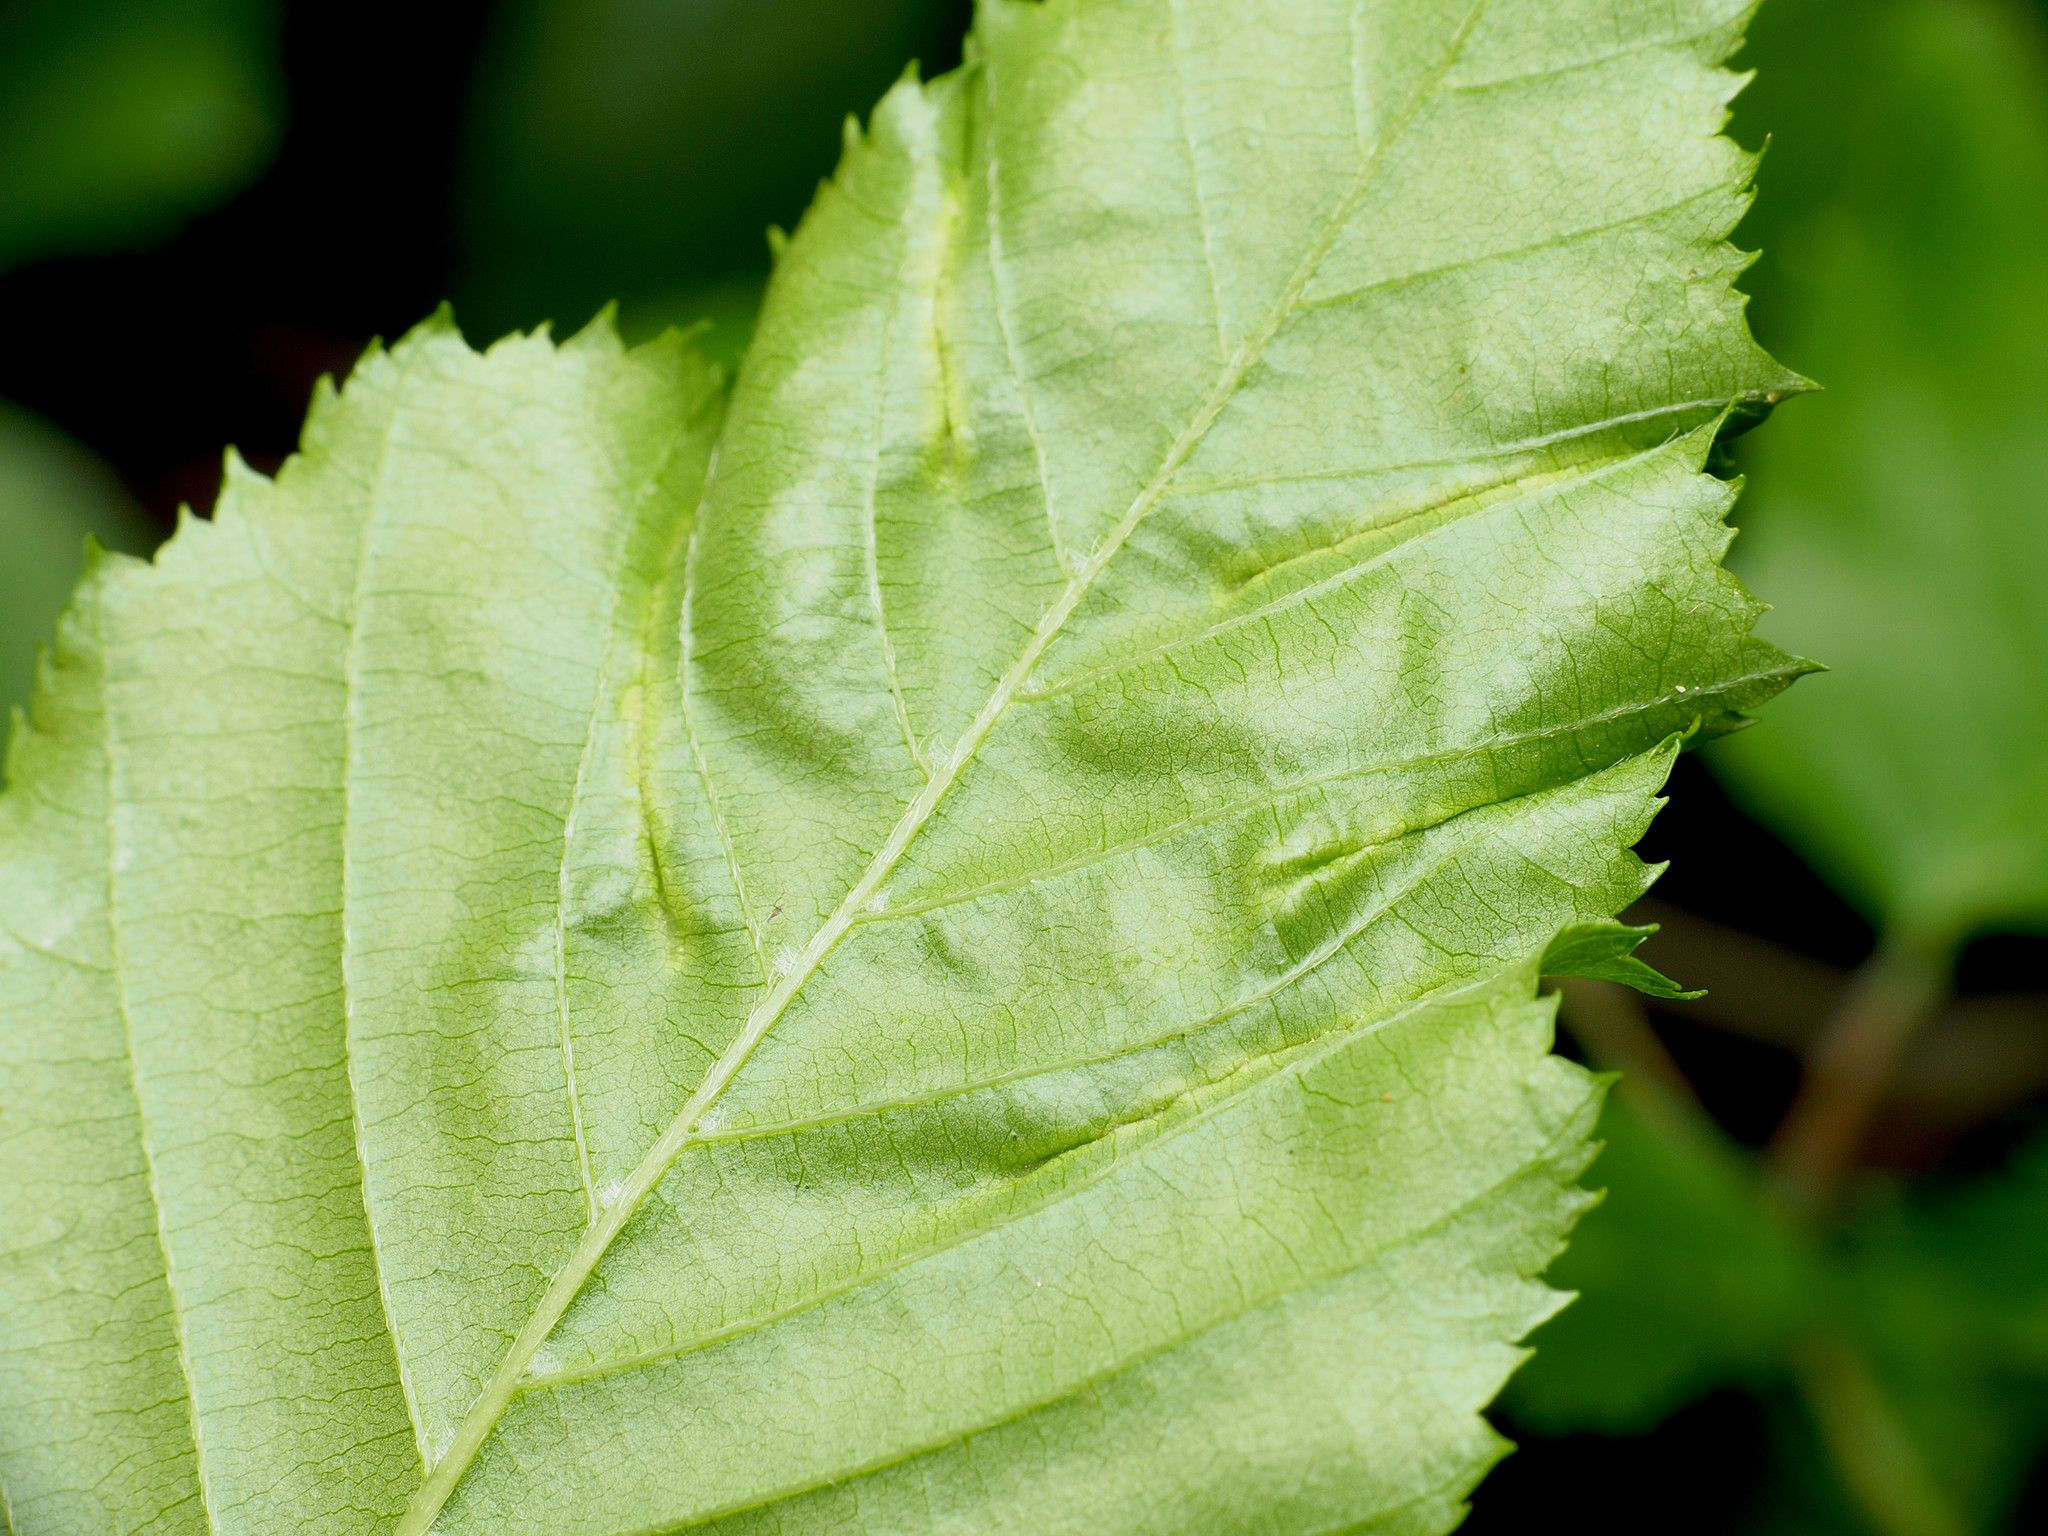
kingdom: Animalia
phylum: Arthropoda
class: Insecta
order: Diptera
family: Cecidomyiidae
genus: Dasineura
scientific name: Dasineura pudibunda
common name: Hornbeam leaf gall midge
